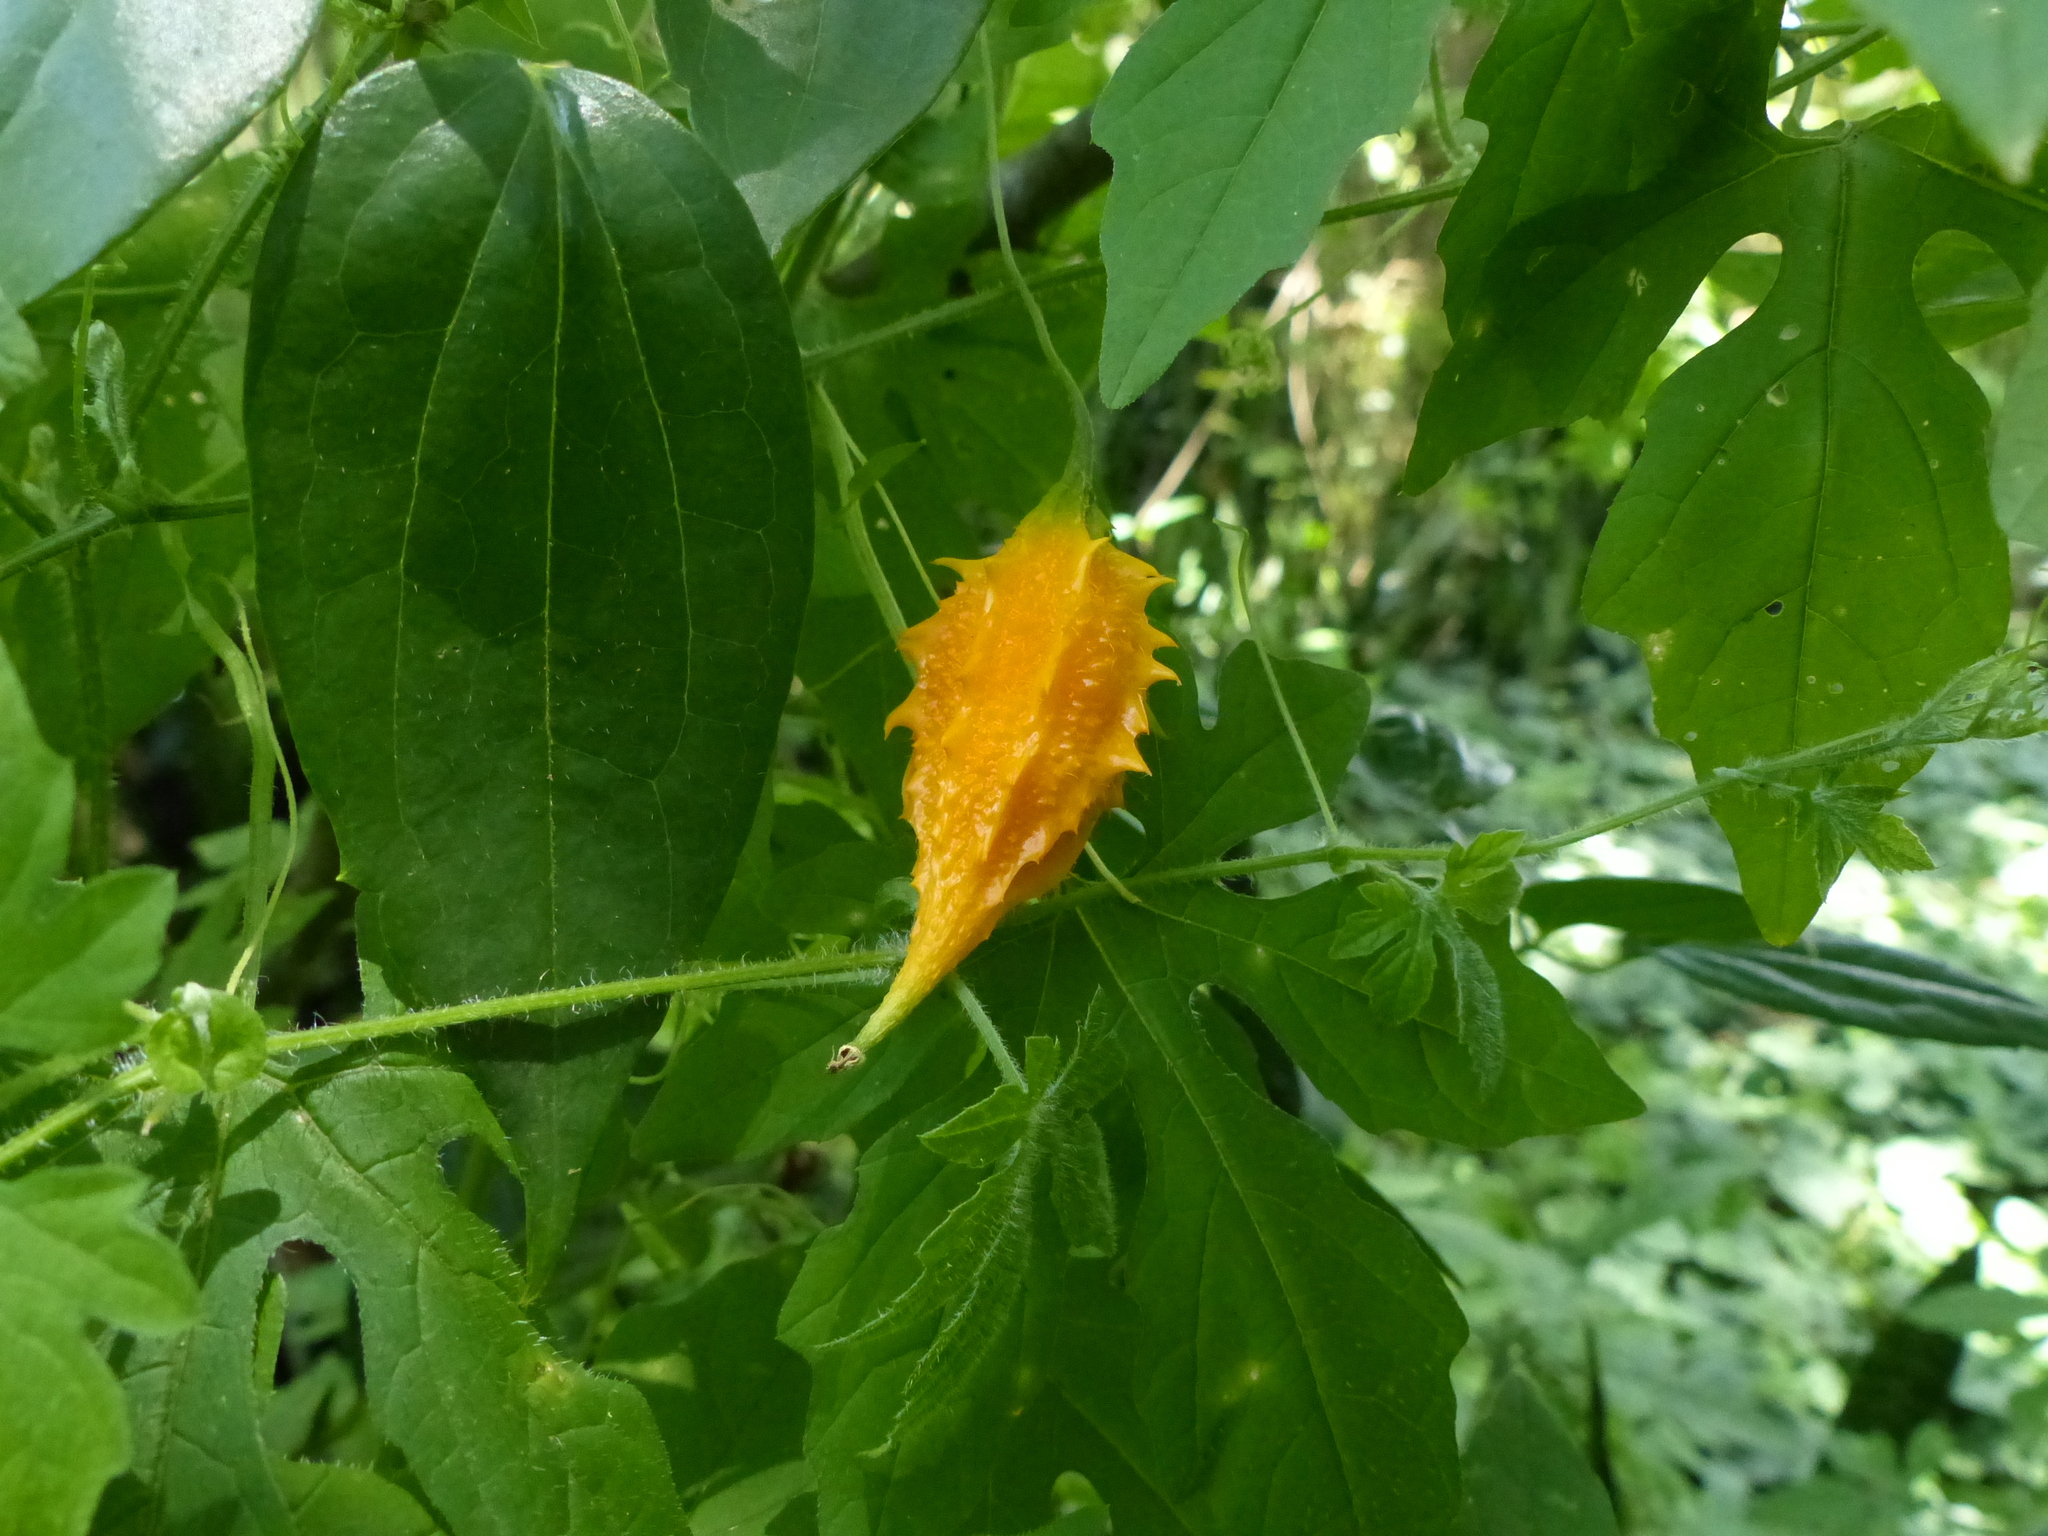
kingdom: Plantae
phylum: Tracheophyta
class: Magnoliopsida
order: Cucurbitales
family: Cucurbitaceae
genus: Momordica
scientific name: Momordica charantia
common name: Balsampear
